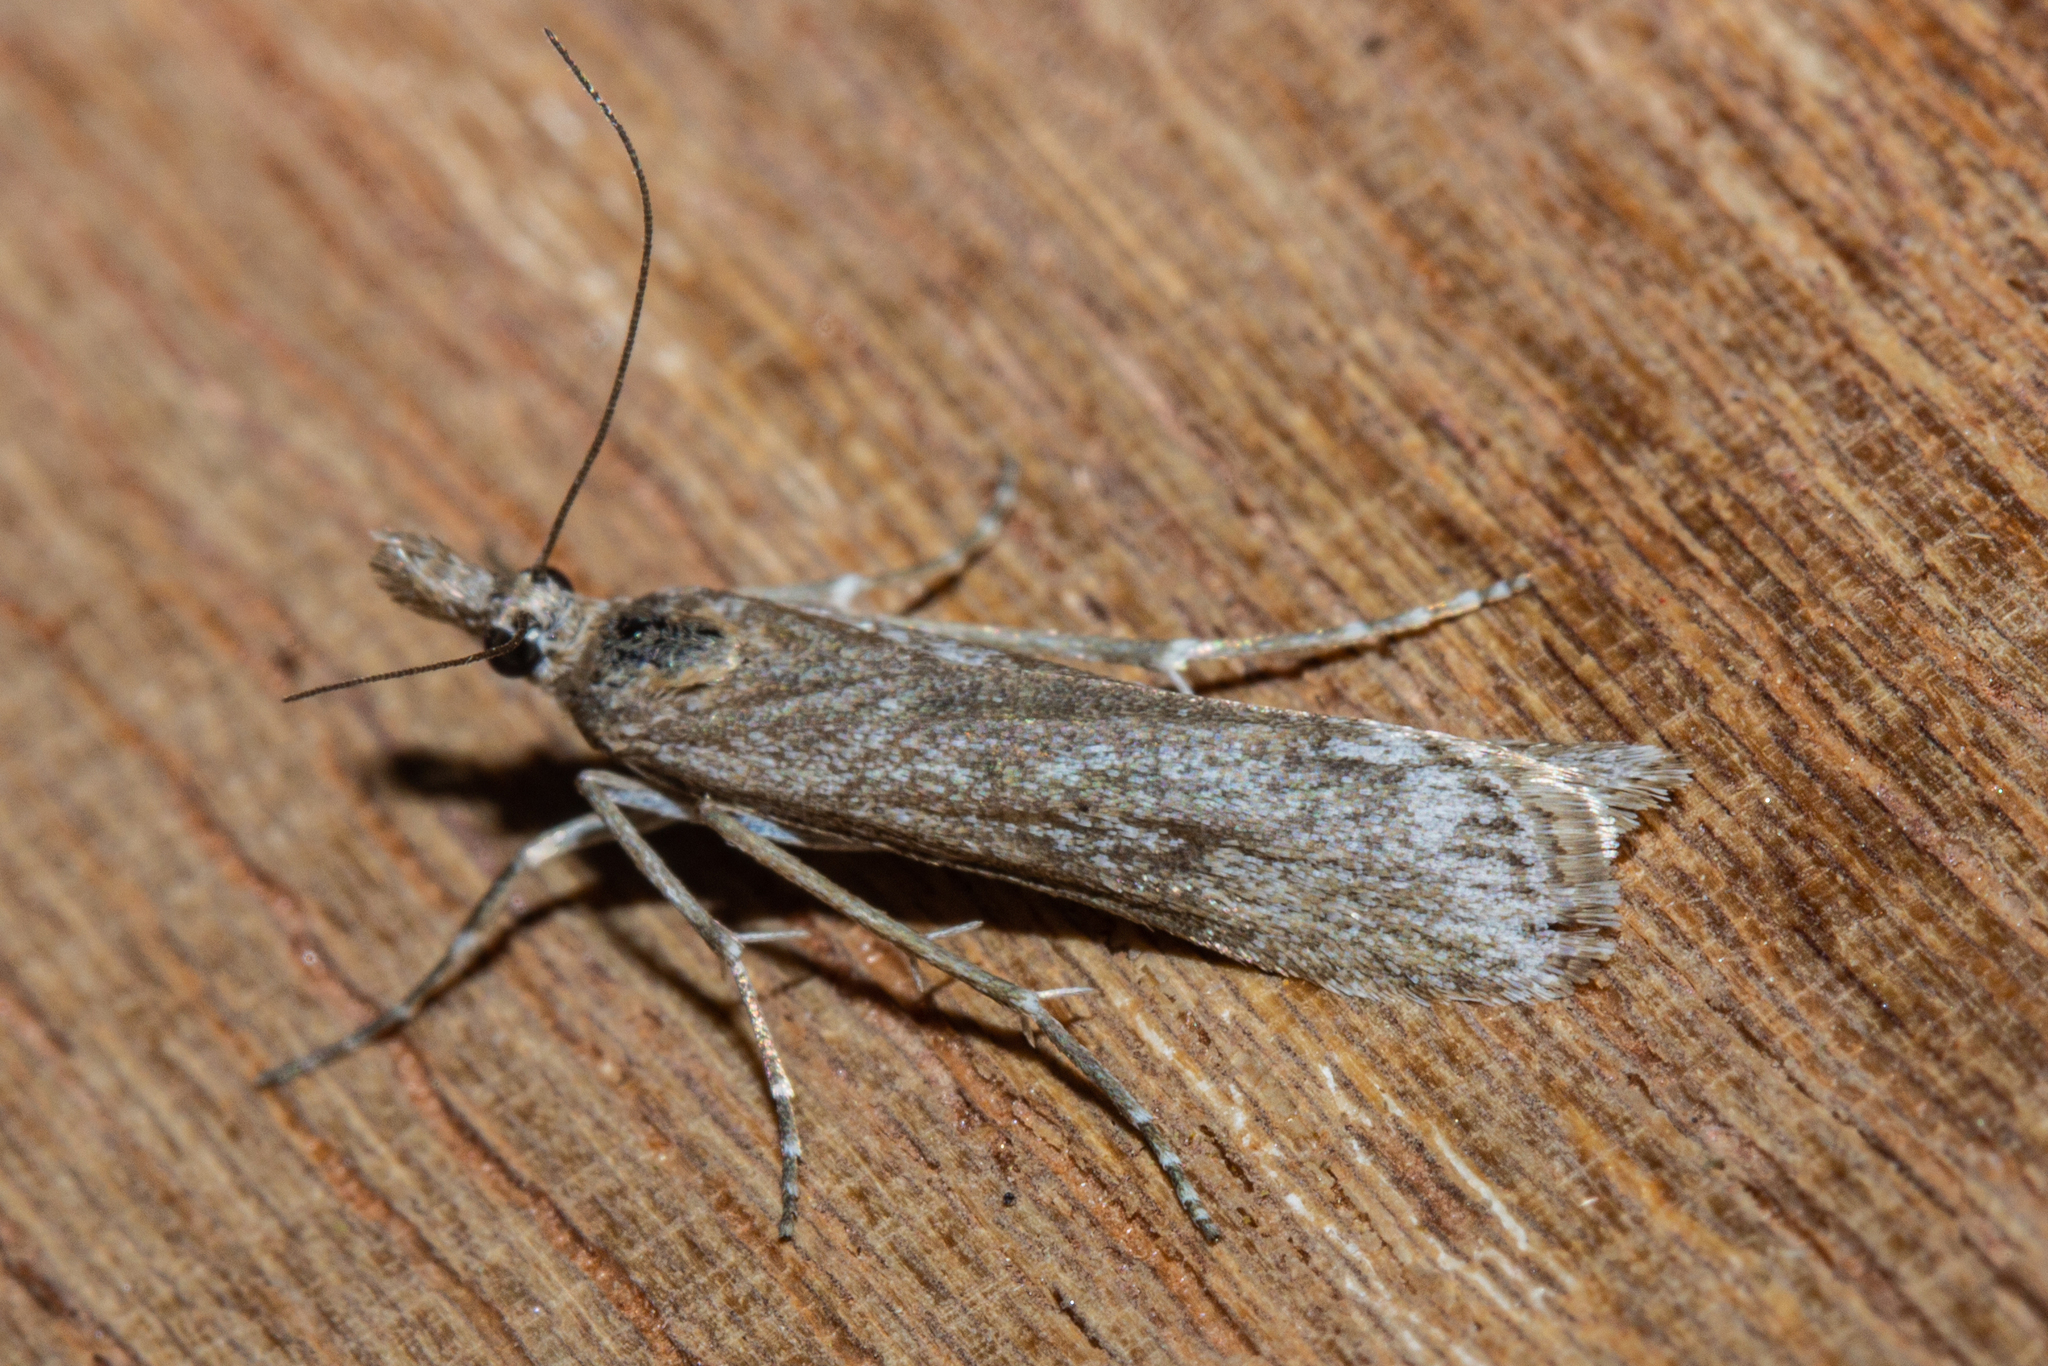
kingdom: Animalia
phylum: Arthropoda
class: Insecta
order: Lepidoptera
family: Crambidae
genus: Eudonia
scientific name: Eudonia leptalea
